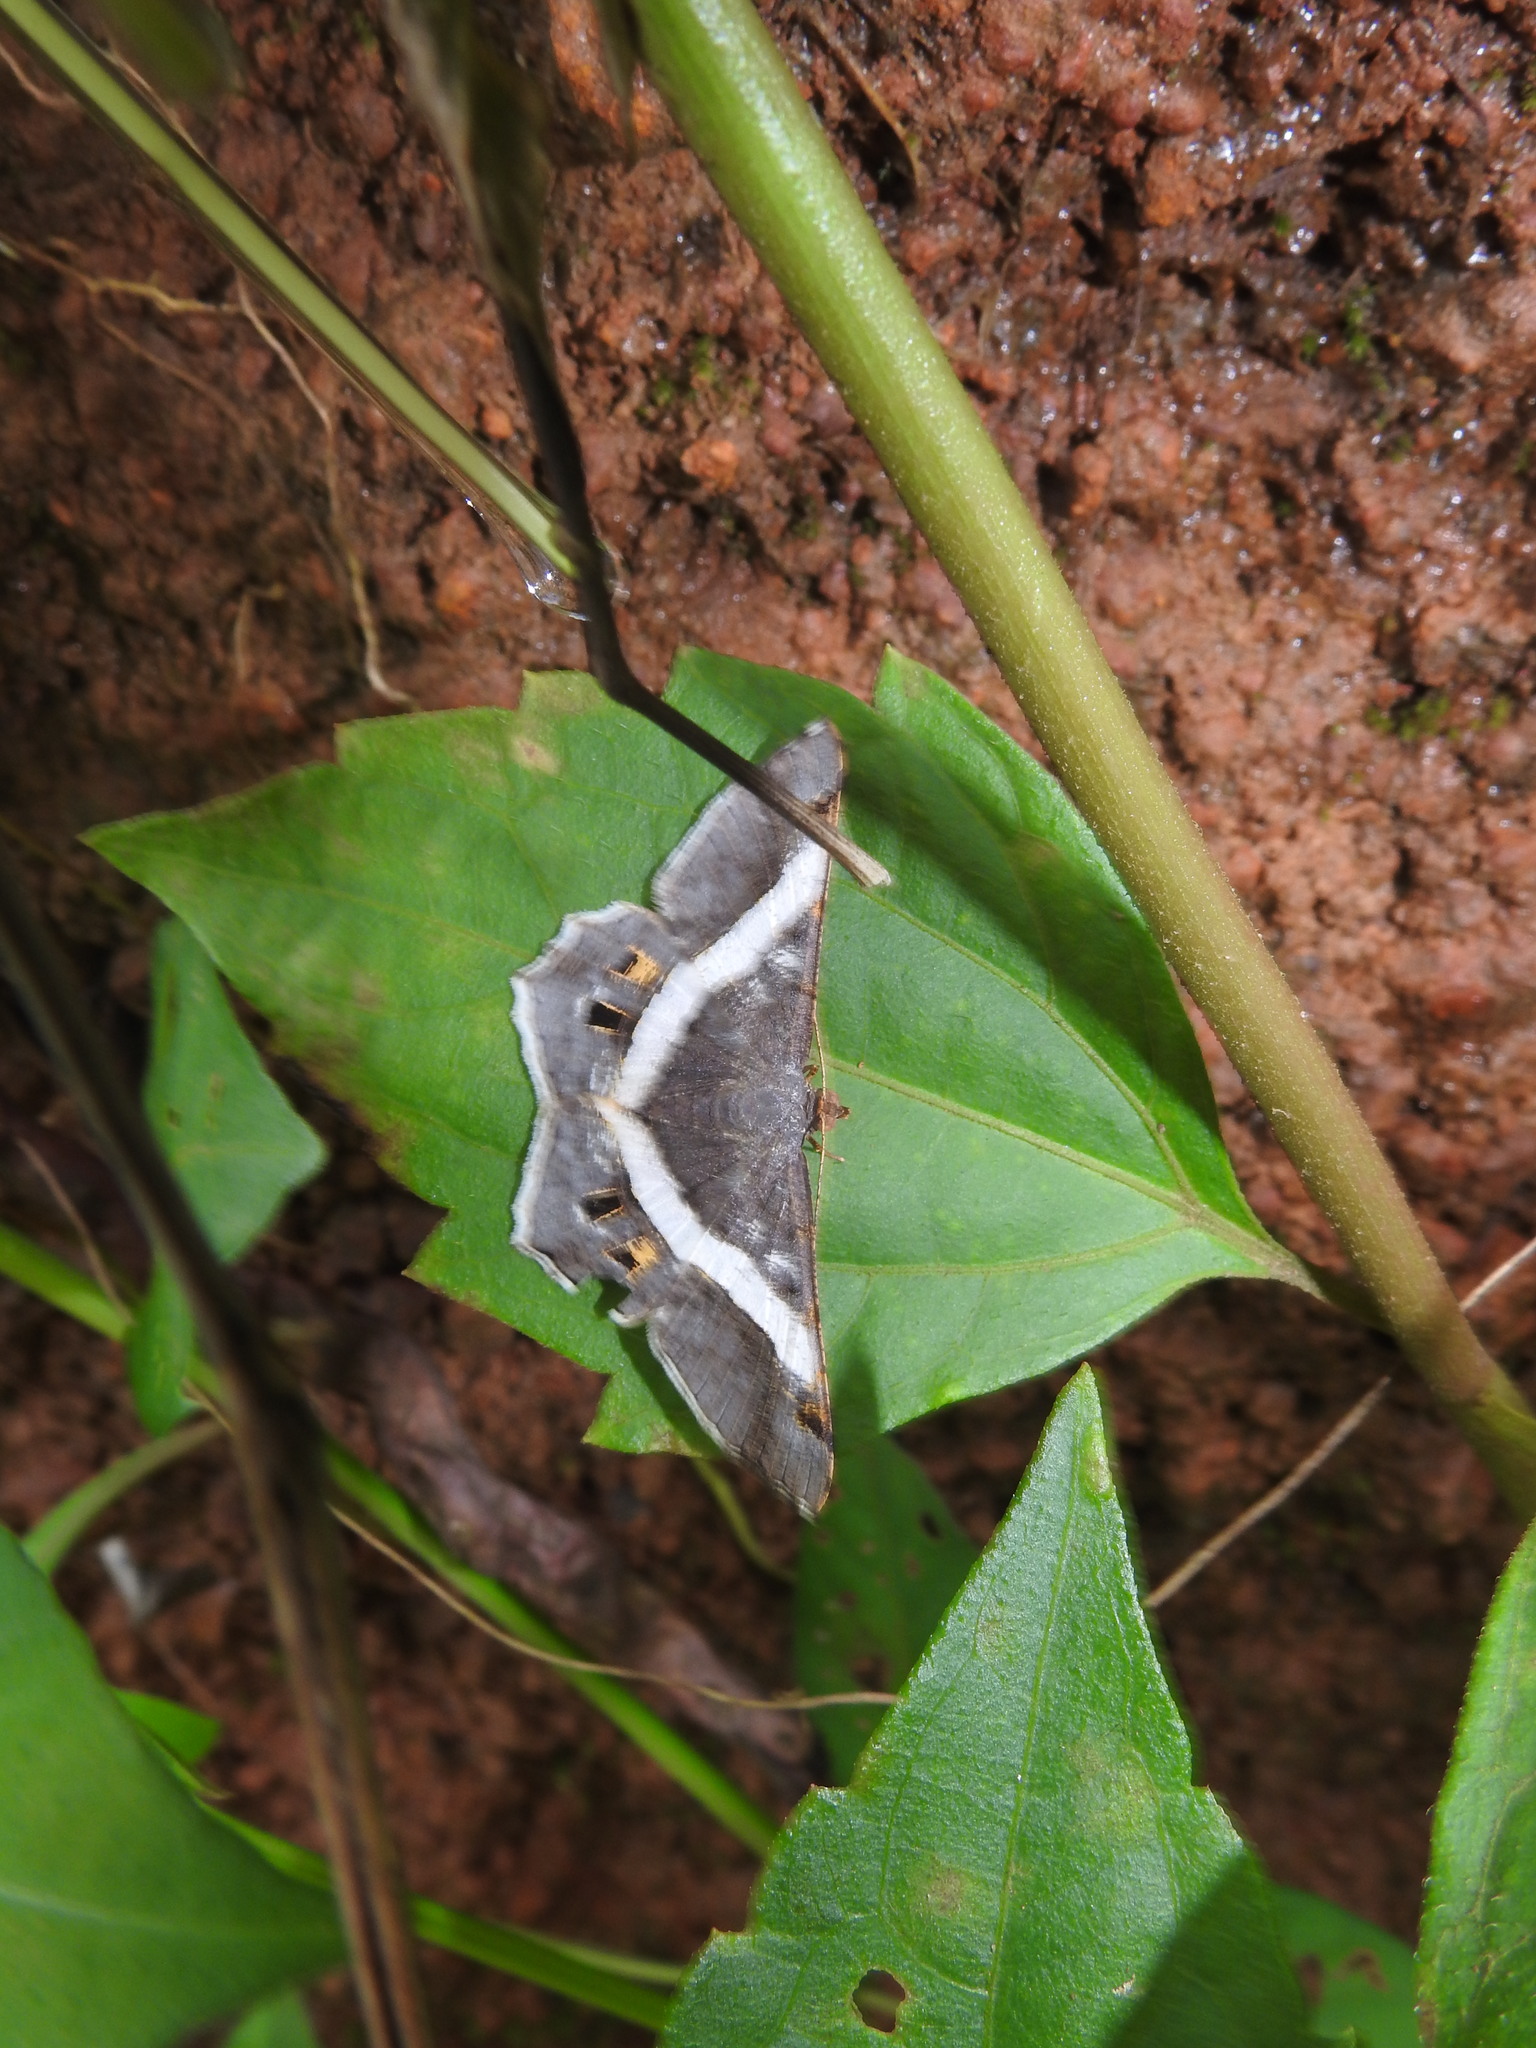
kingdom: Animalia
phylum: Arthropoda
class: Insecta
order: Lepidoptera
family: Geometridae
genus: Chiasmia
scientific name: Chiasmia nora
